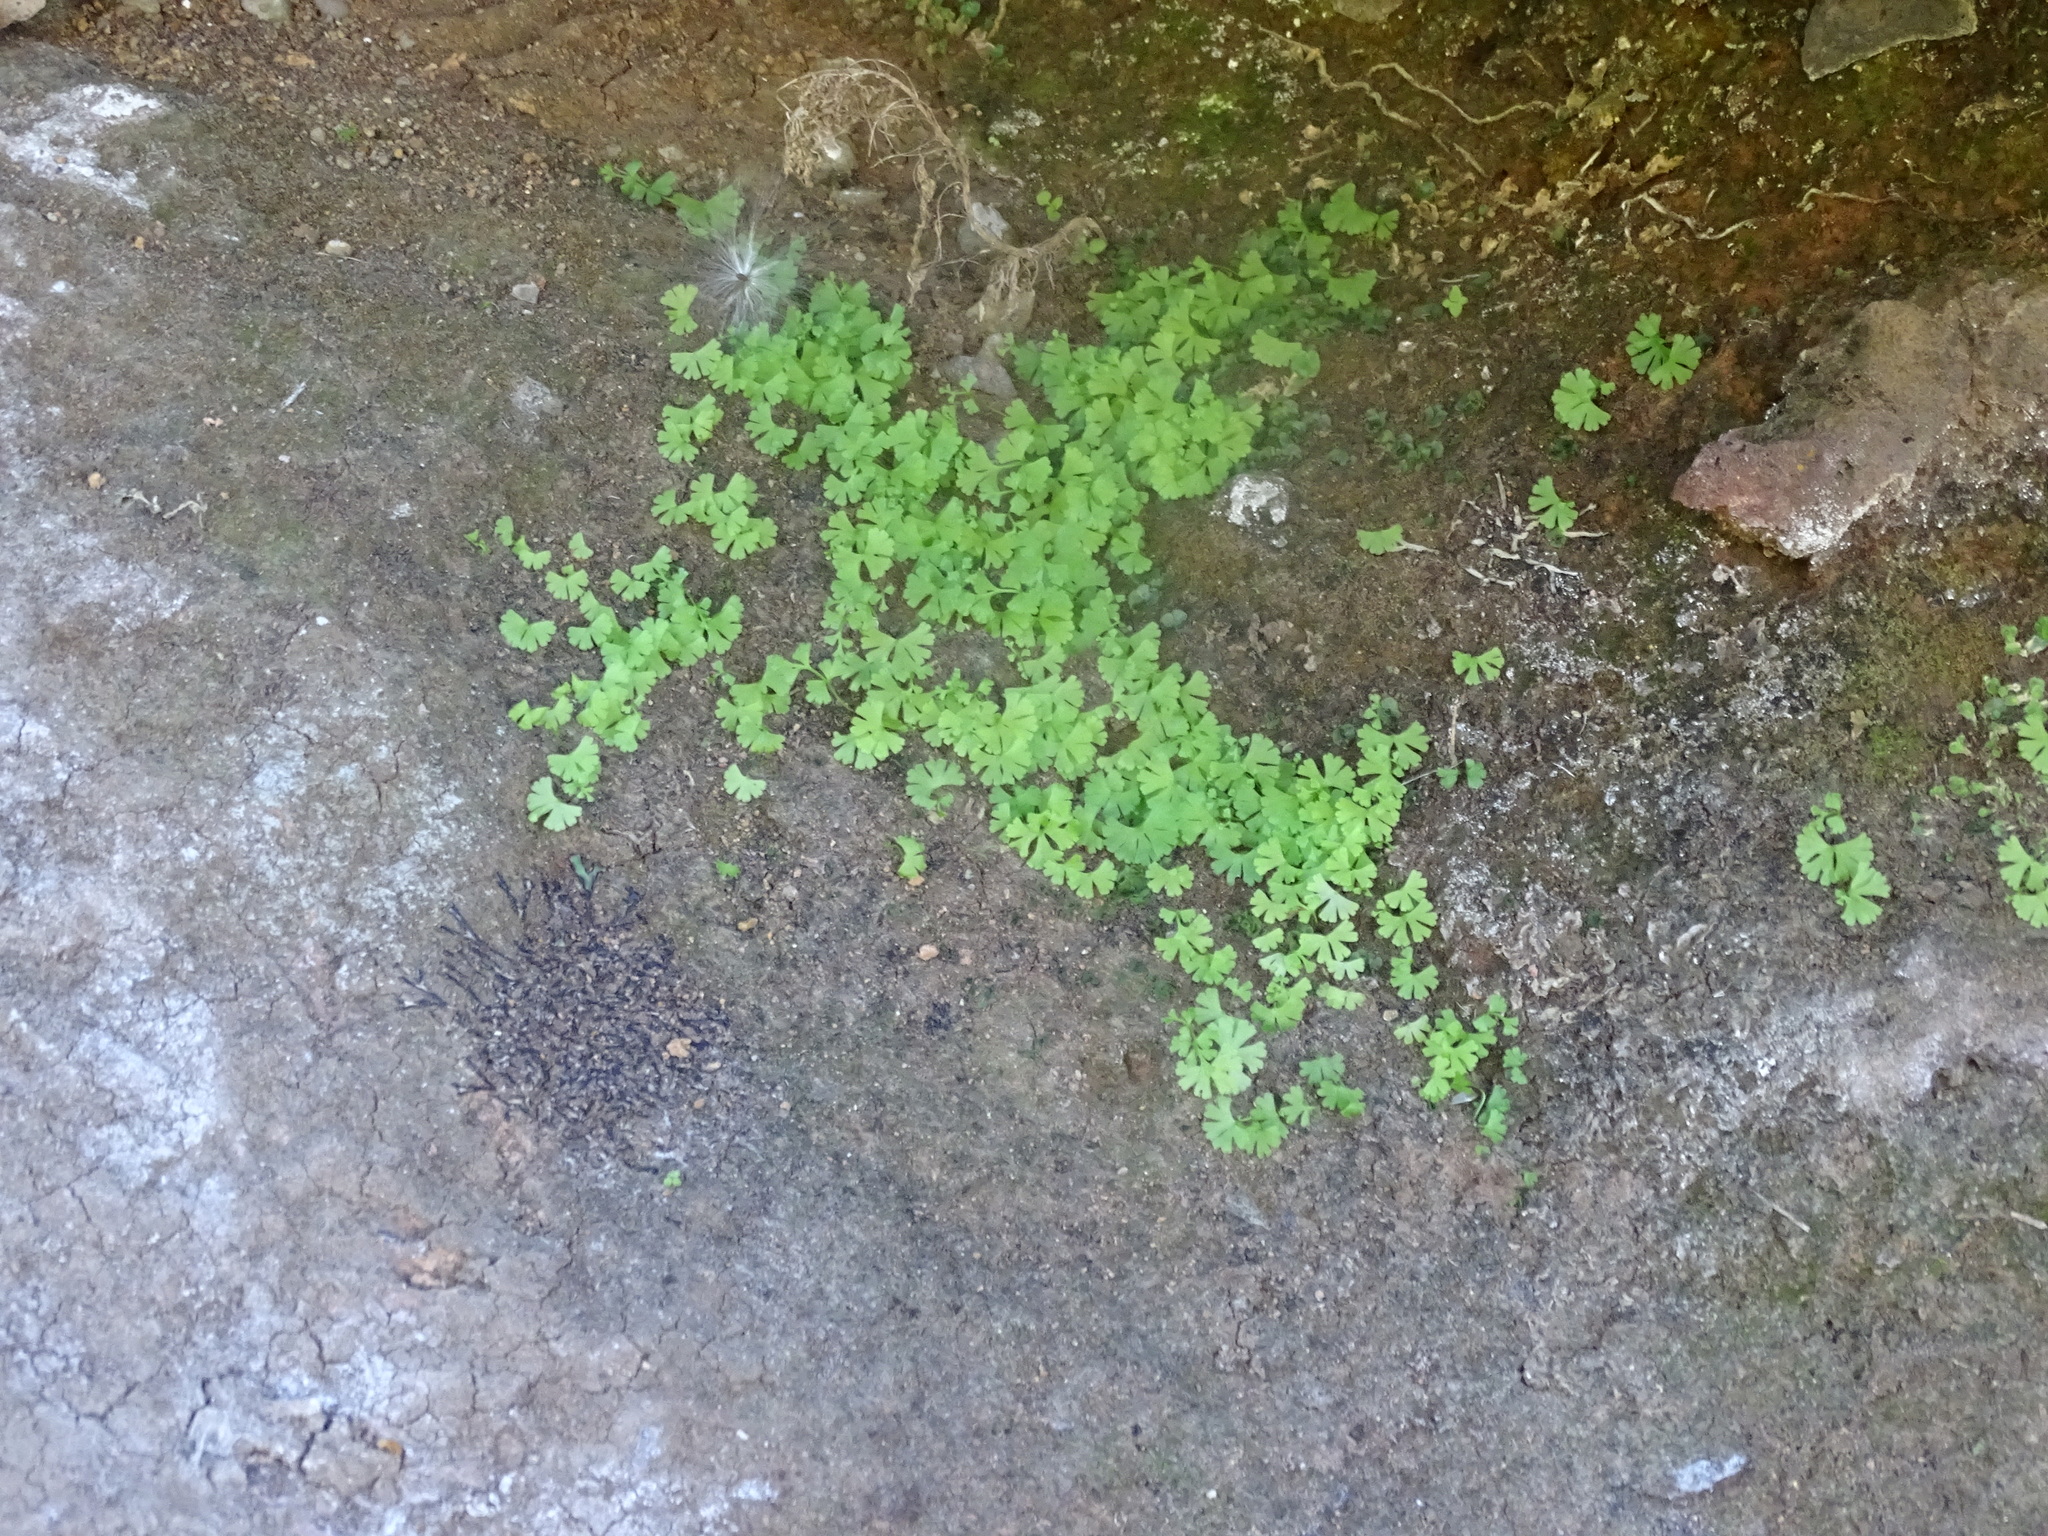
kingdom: Plantae
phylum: Tracheophyta
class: Polypodiopsida
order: Polypodiales
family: Pteridaceae
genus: Anogramma
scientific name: Anogramma leptophylla
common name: Jersey fern
